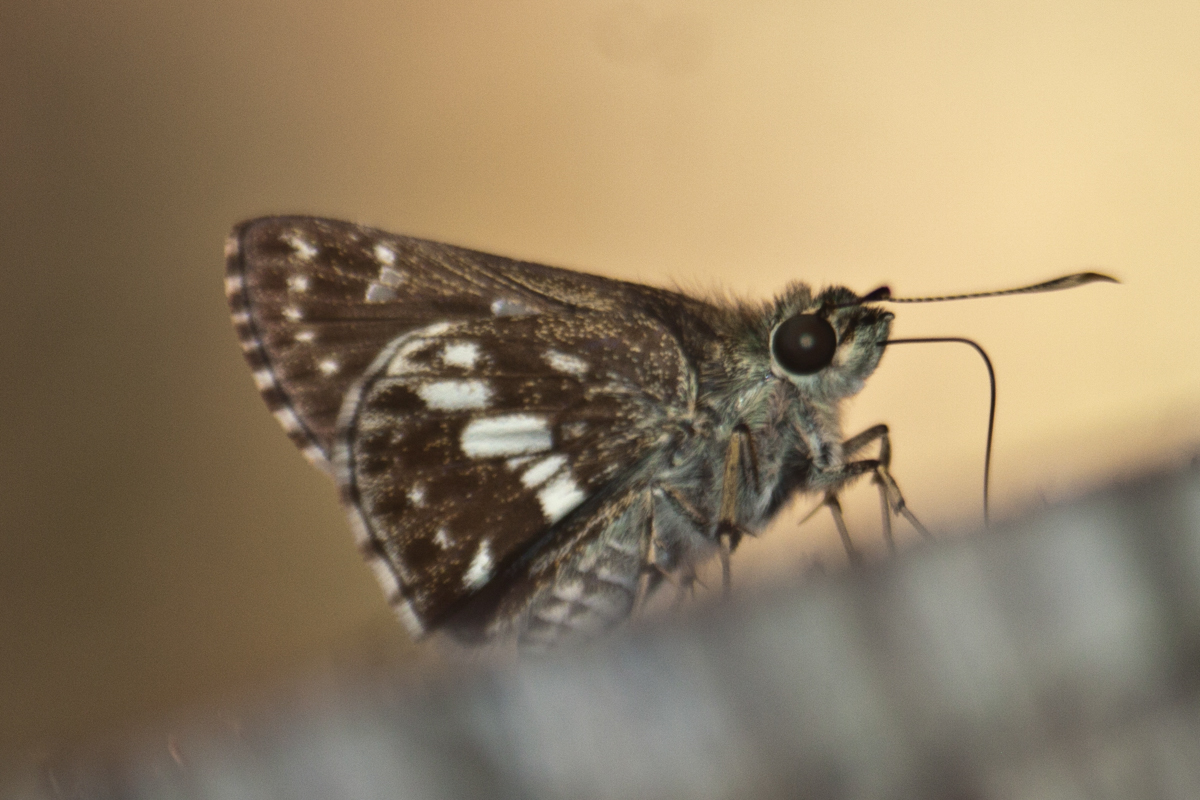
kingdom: Animalia
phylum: Arthropoda
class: Insecta
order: Lepidoptera
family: Hesperiidae
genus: Halpe
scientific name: Halpe porus
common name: Moore's ace
